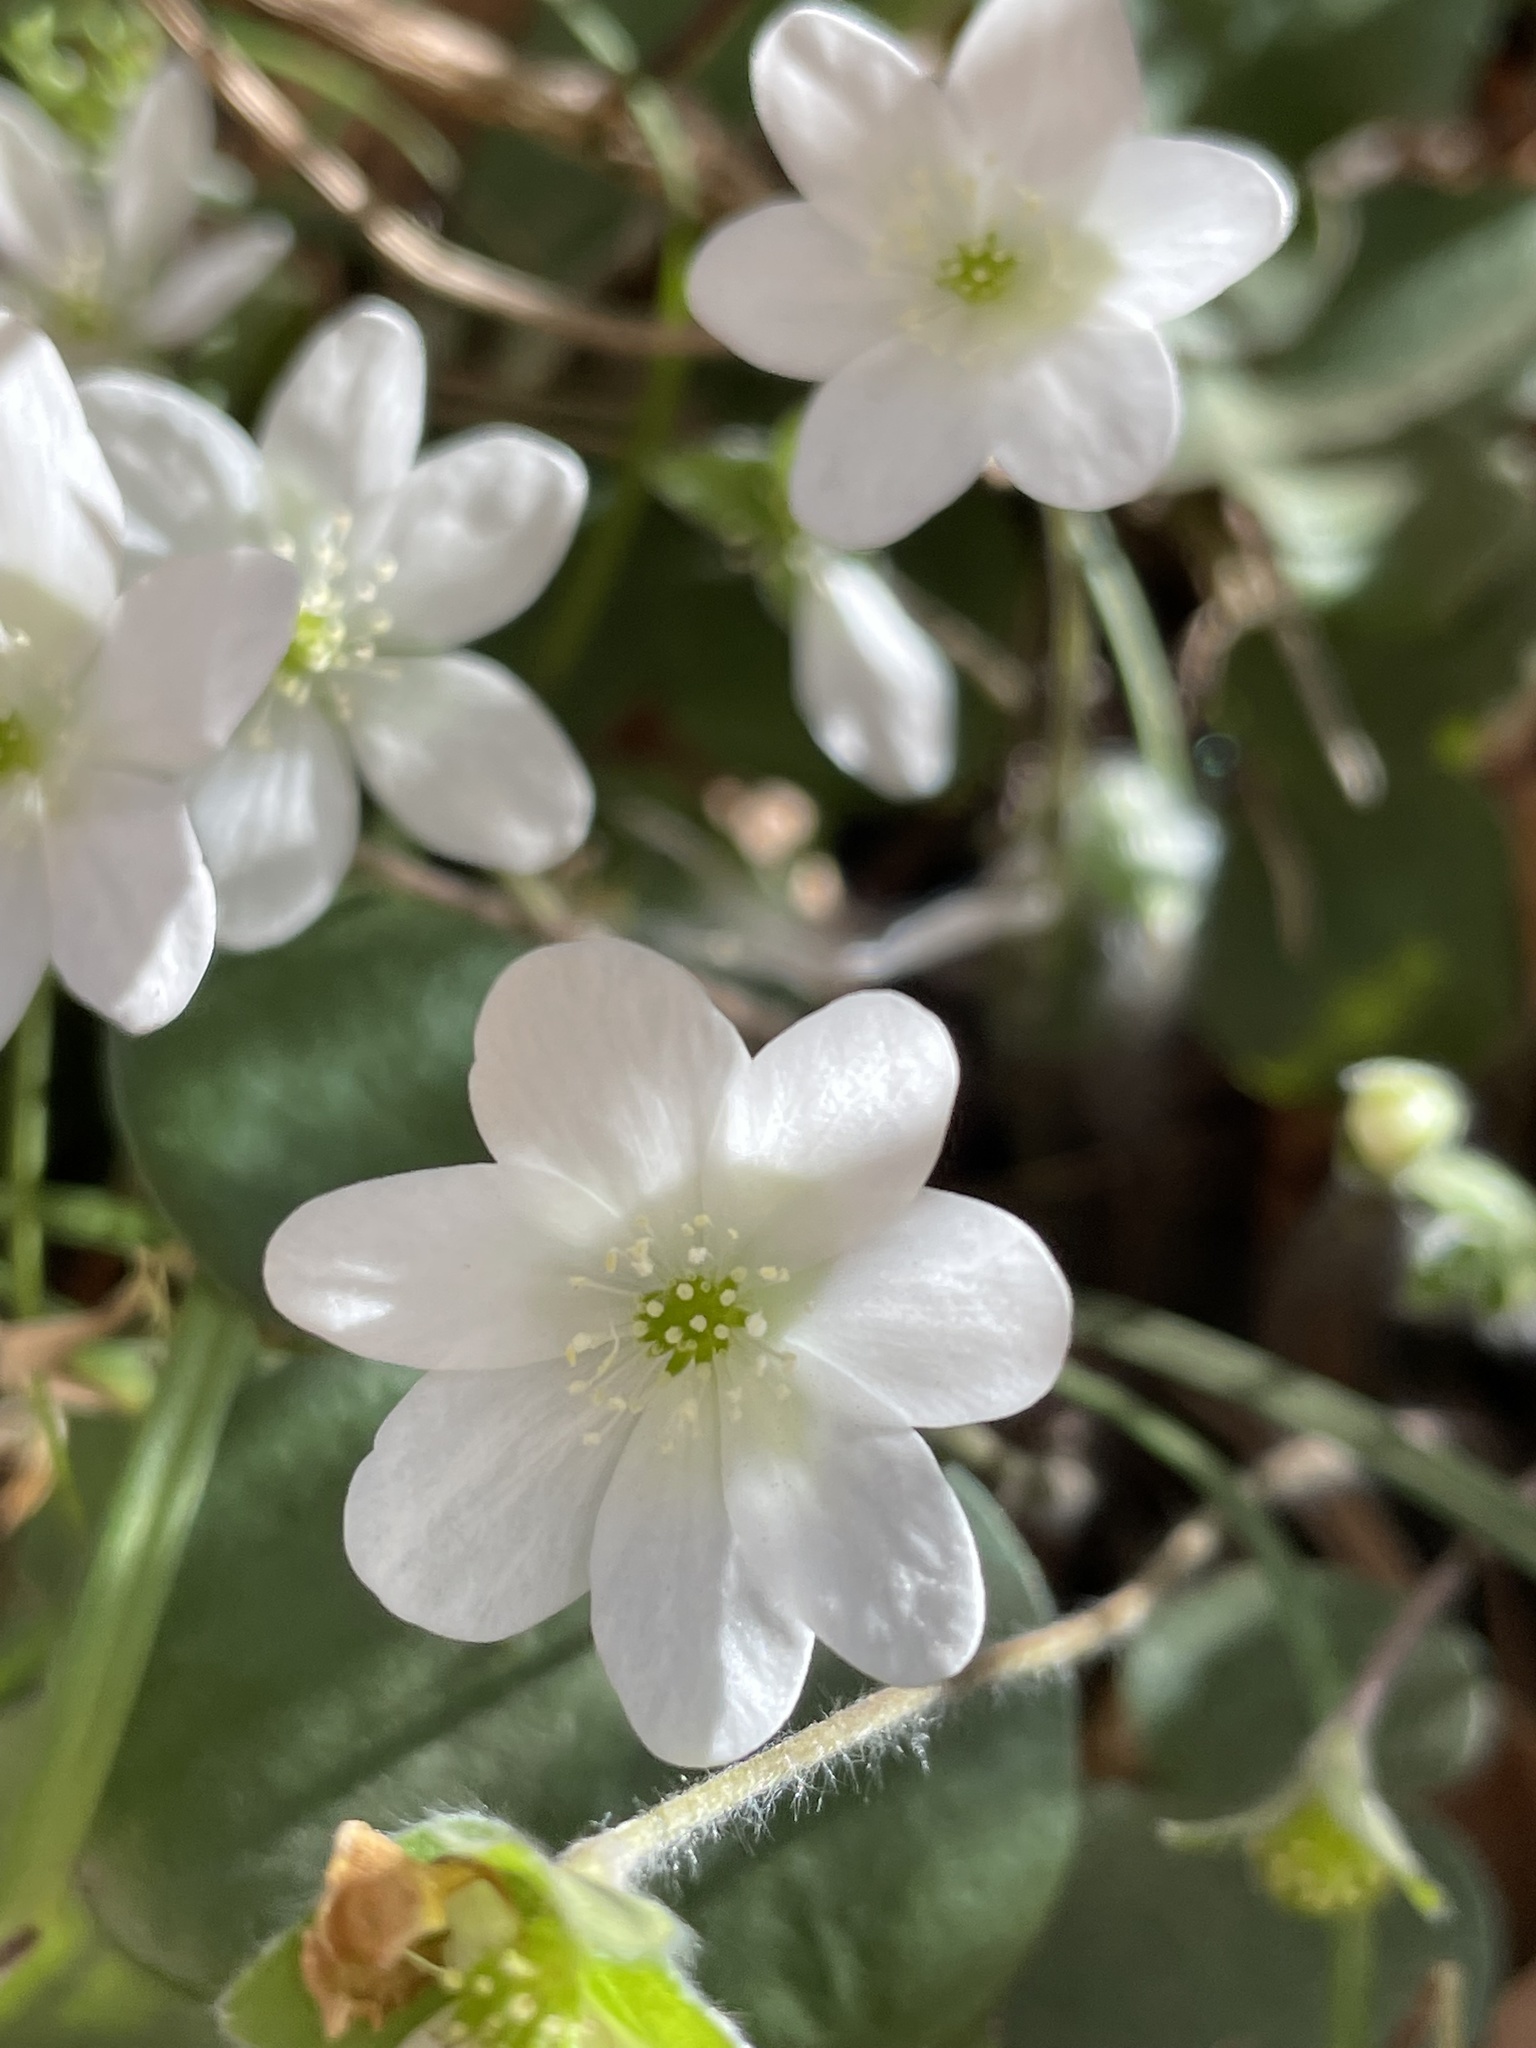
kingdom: Plantae
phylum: Tracheophyta
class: Magnoliopsida
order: Ranunculales
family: Ranunculaceae
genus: Hepatica
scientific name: Hepatica nobilis
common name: Liverleaf
